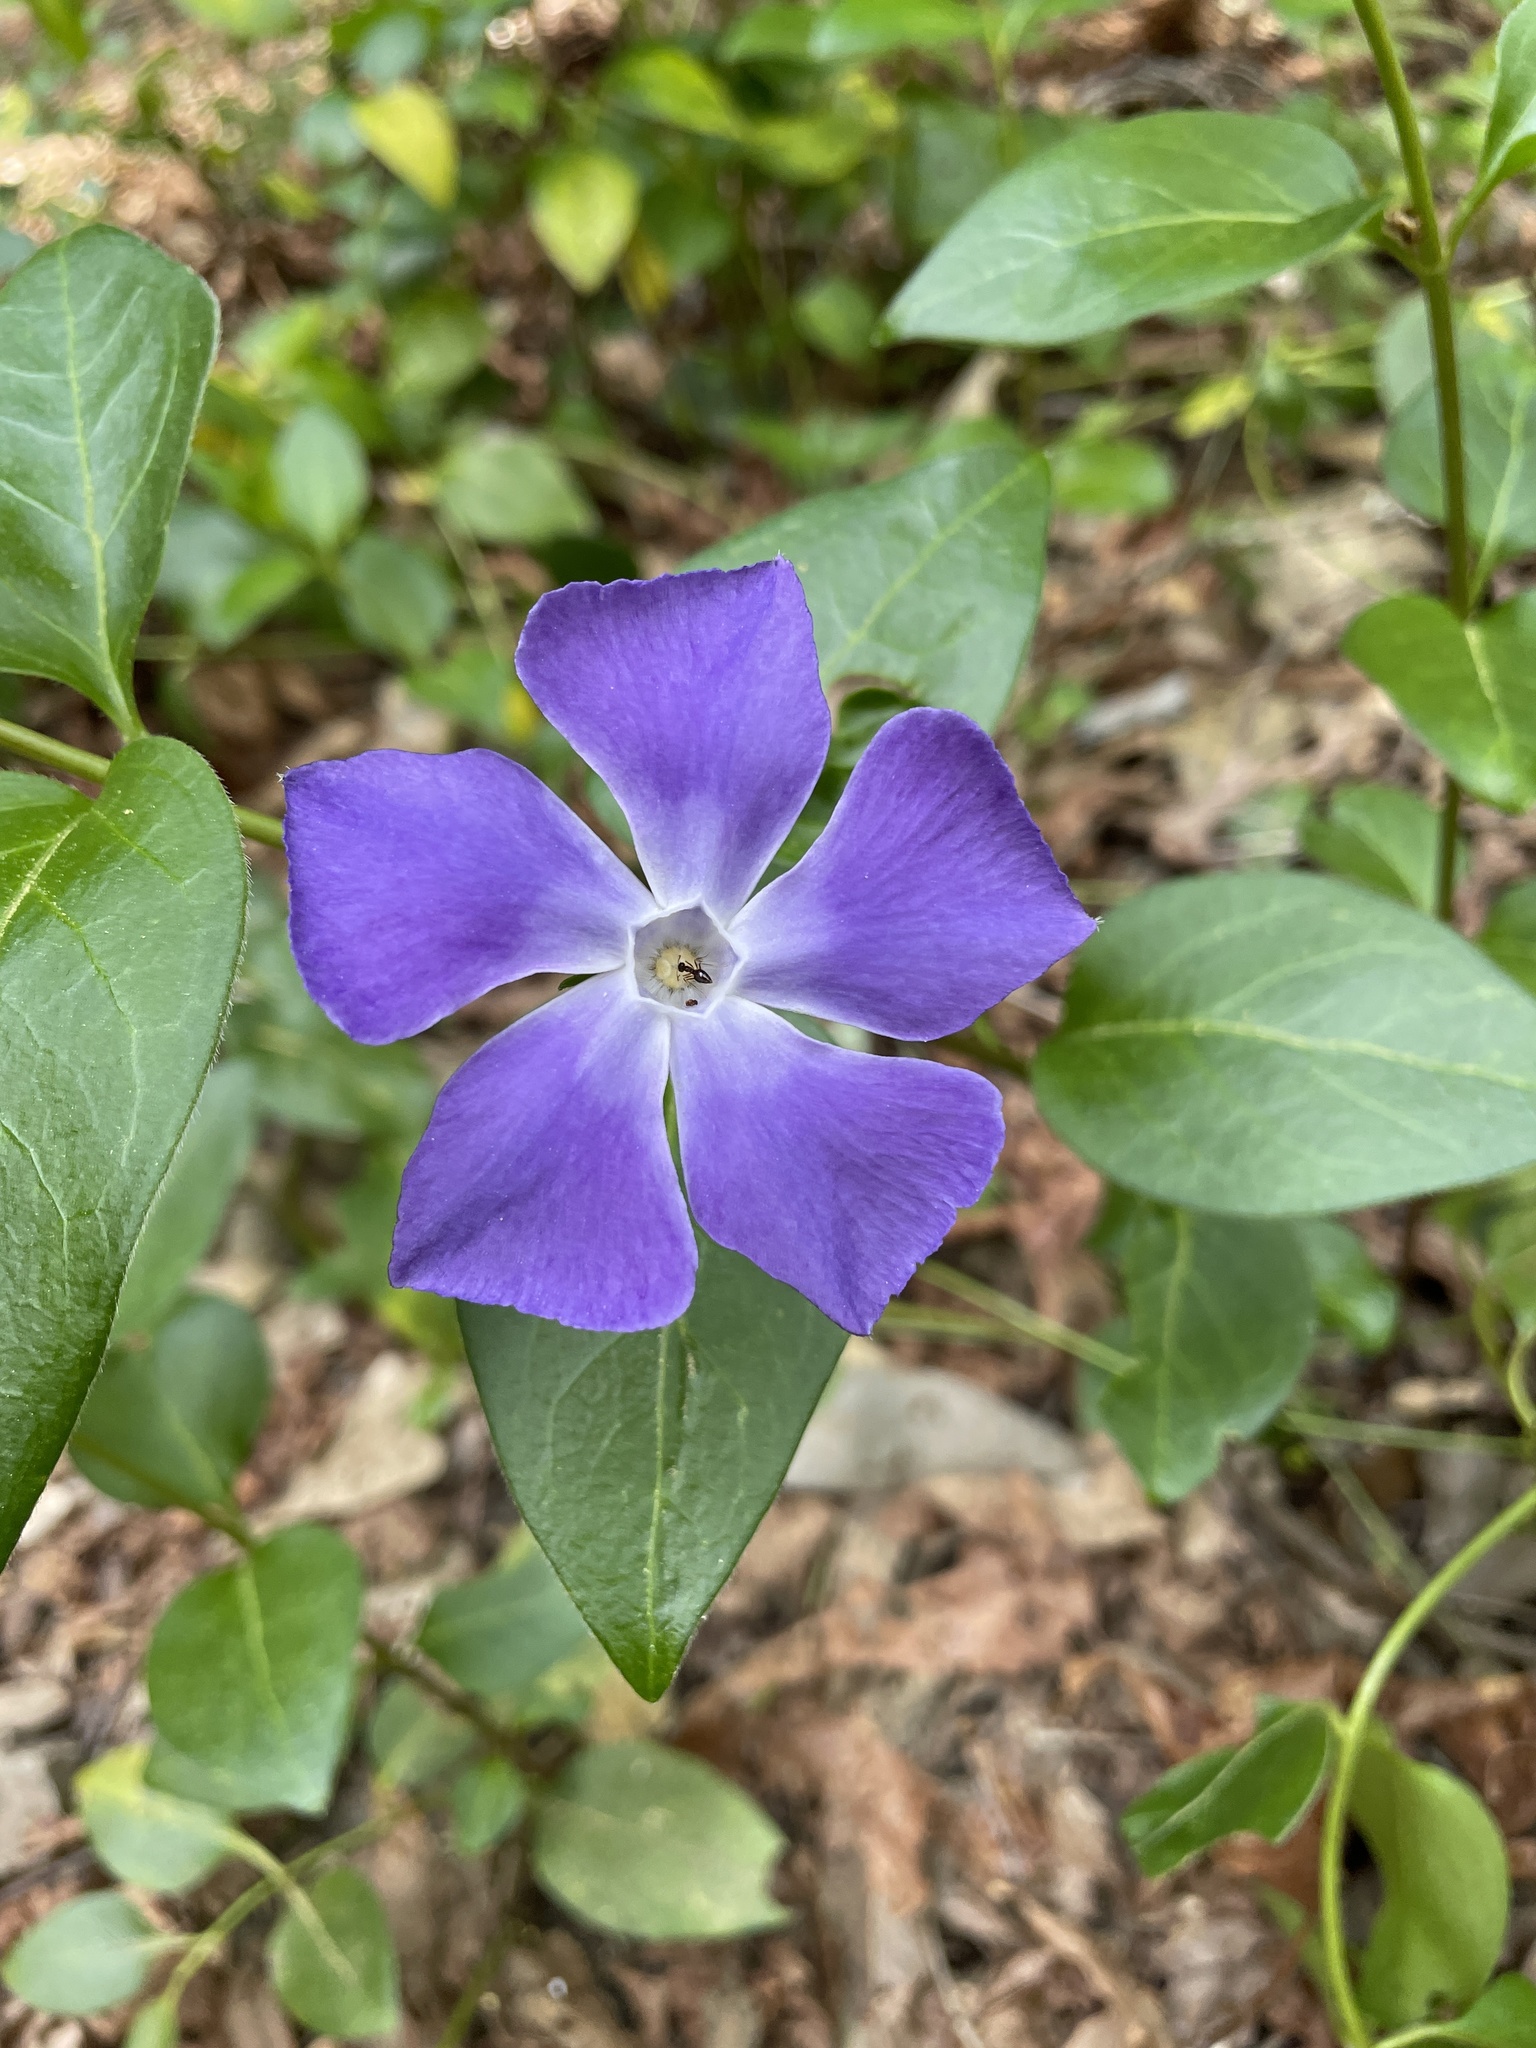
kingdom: Plantae
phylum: Tracheophyta
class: Magnoliopsida
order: Gentianales
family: Apocynaceae
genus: Vinca
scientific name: Vinca major
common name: Greater periwinkle
